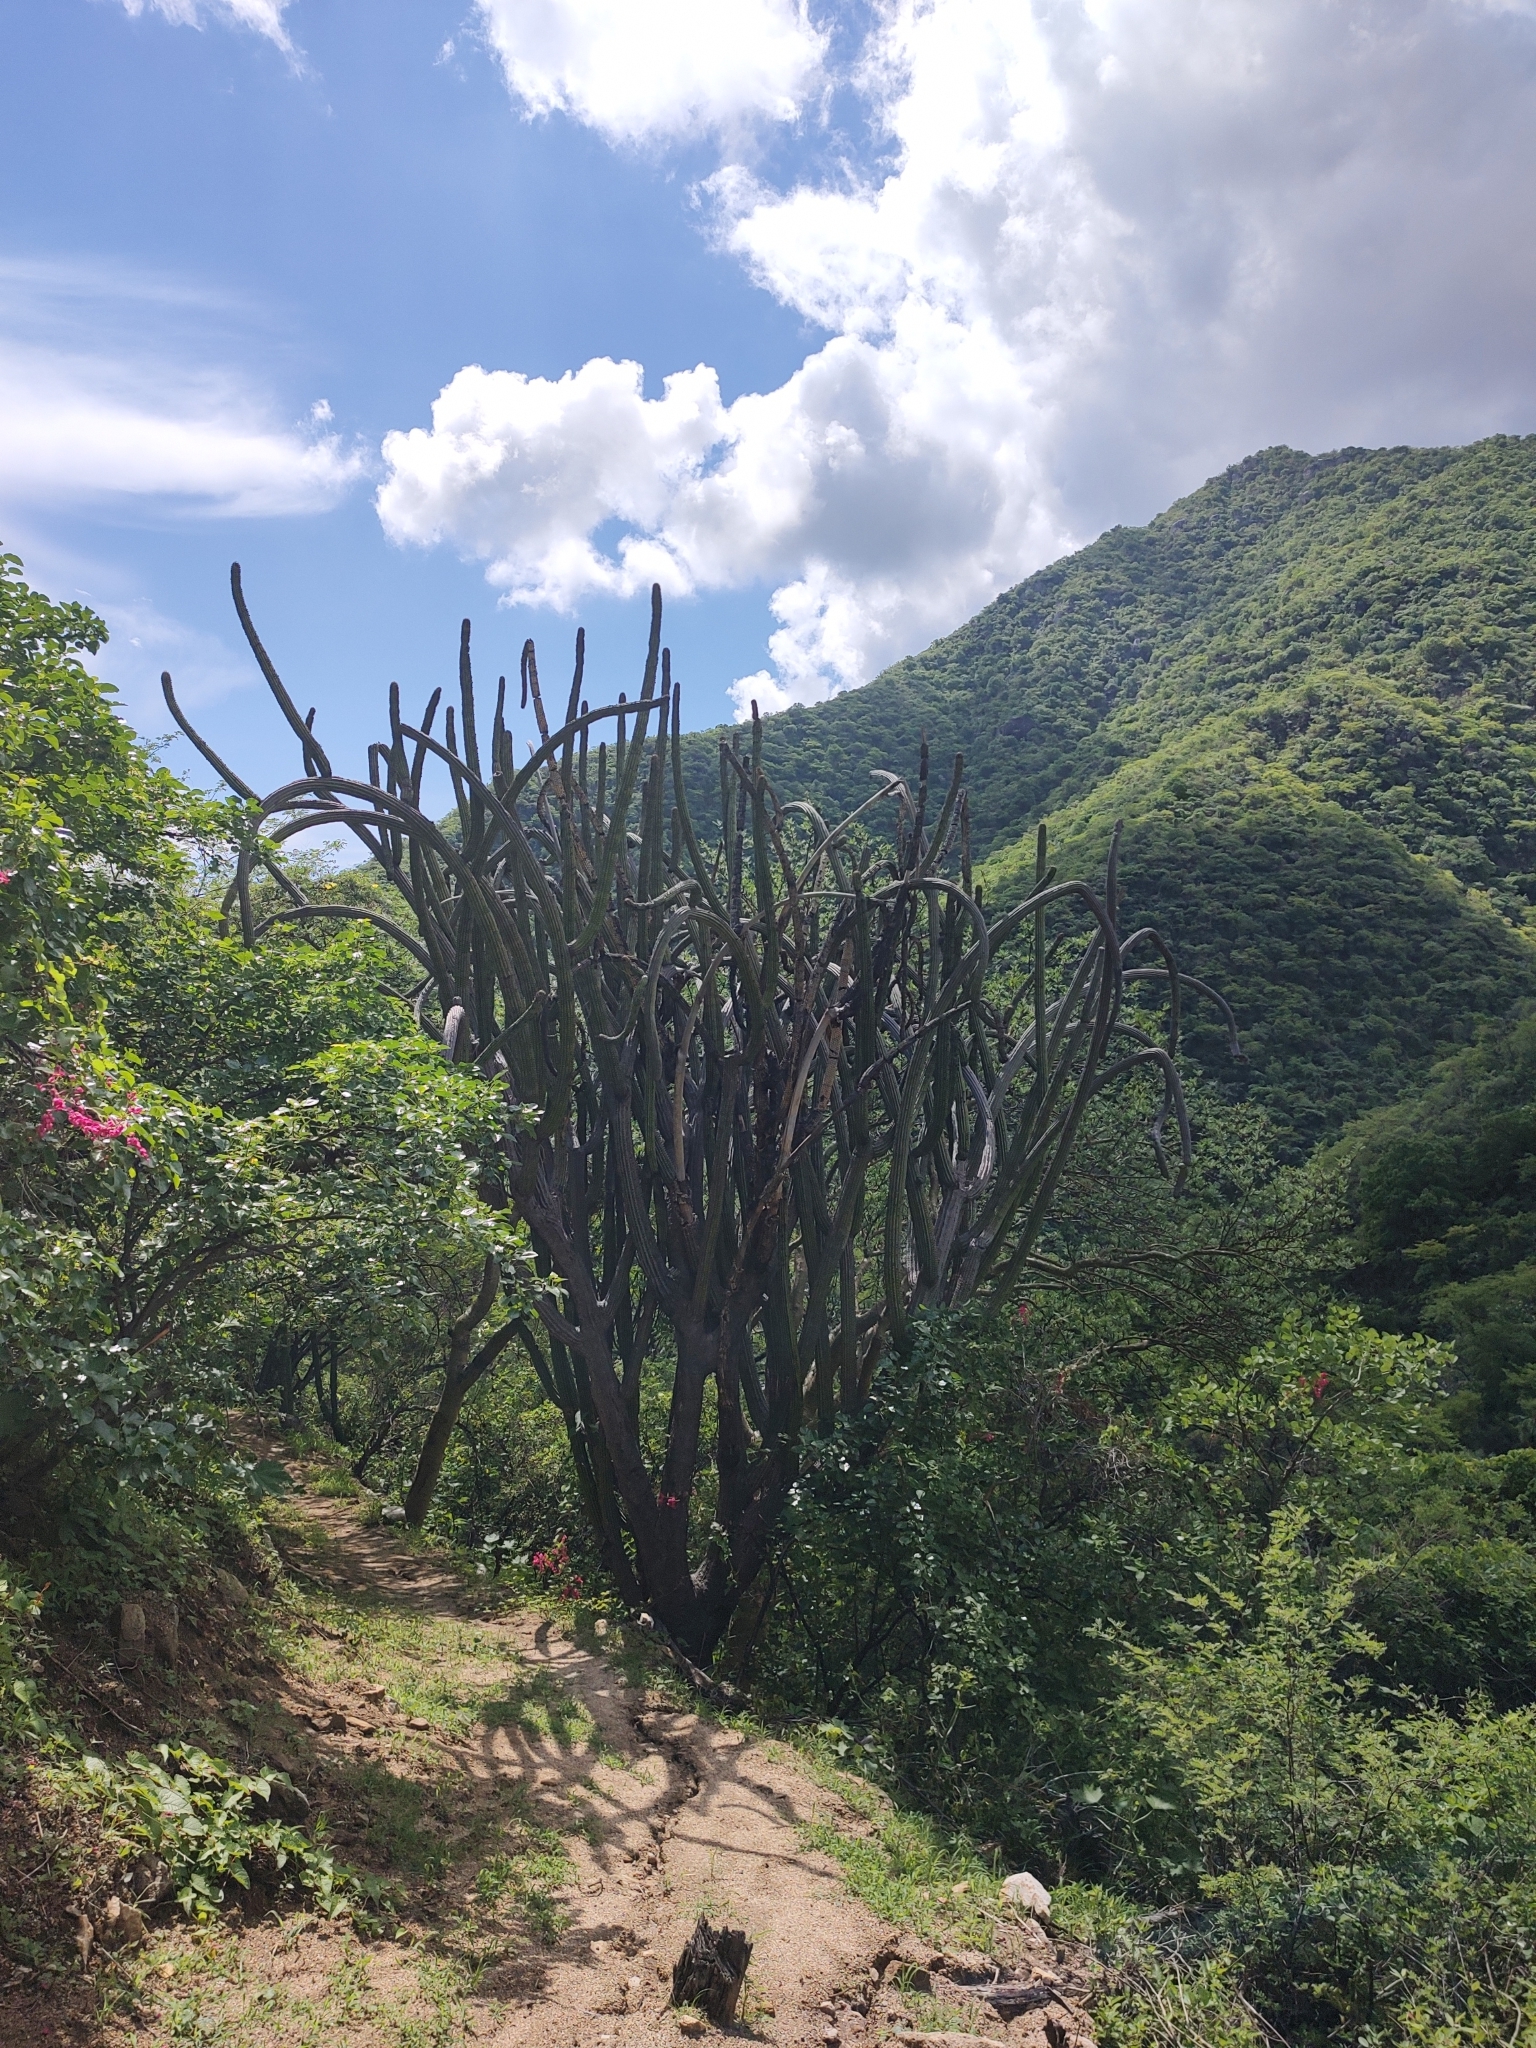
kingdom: Plantae
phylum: Tracheophyta
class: Magnoliopsida
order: Caryophyllales
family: Cactaceae
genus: Stenocereus
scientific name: Stenocereus thurberi
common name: Organ pipe cactus
